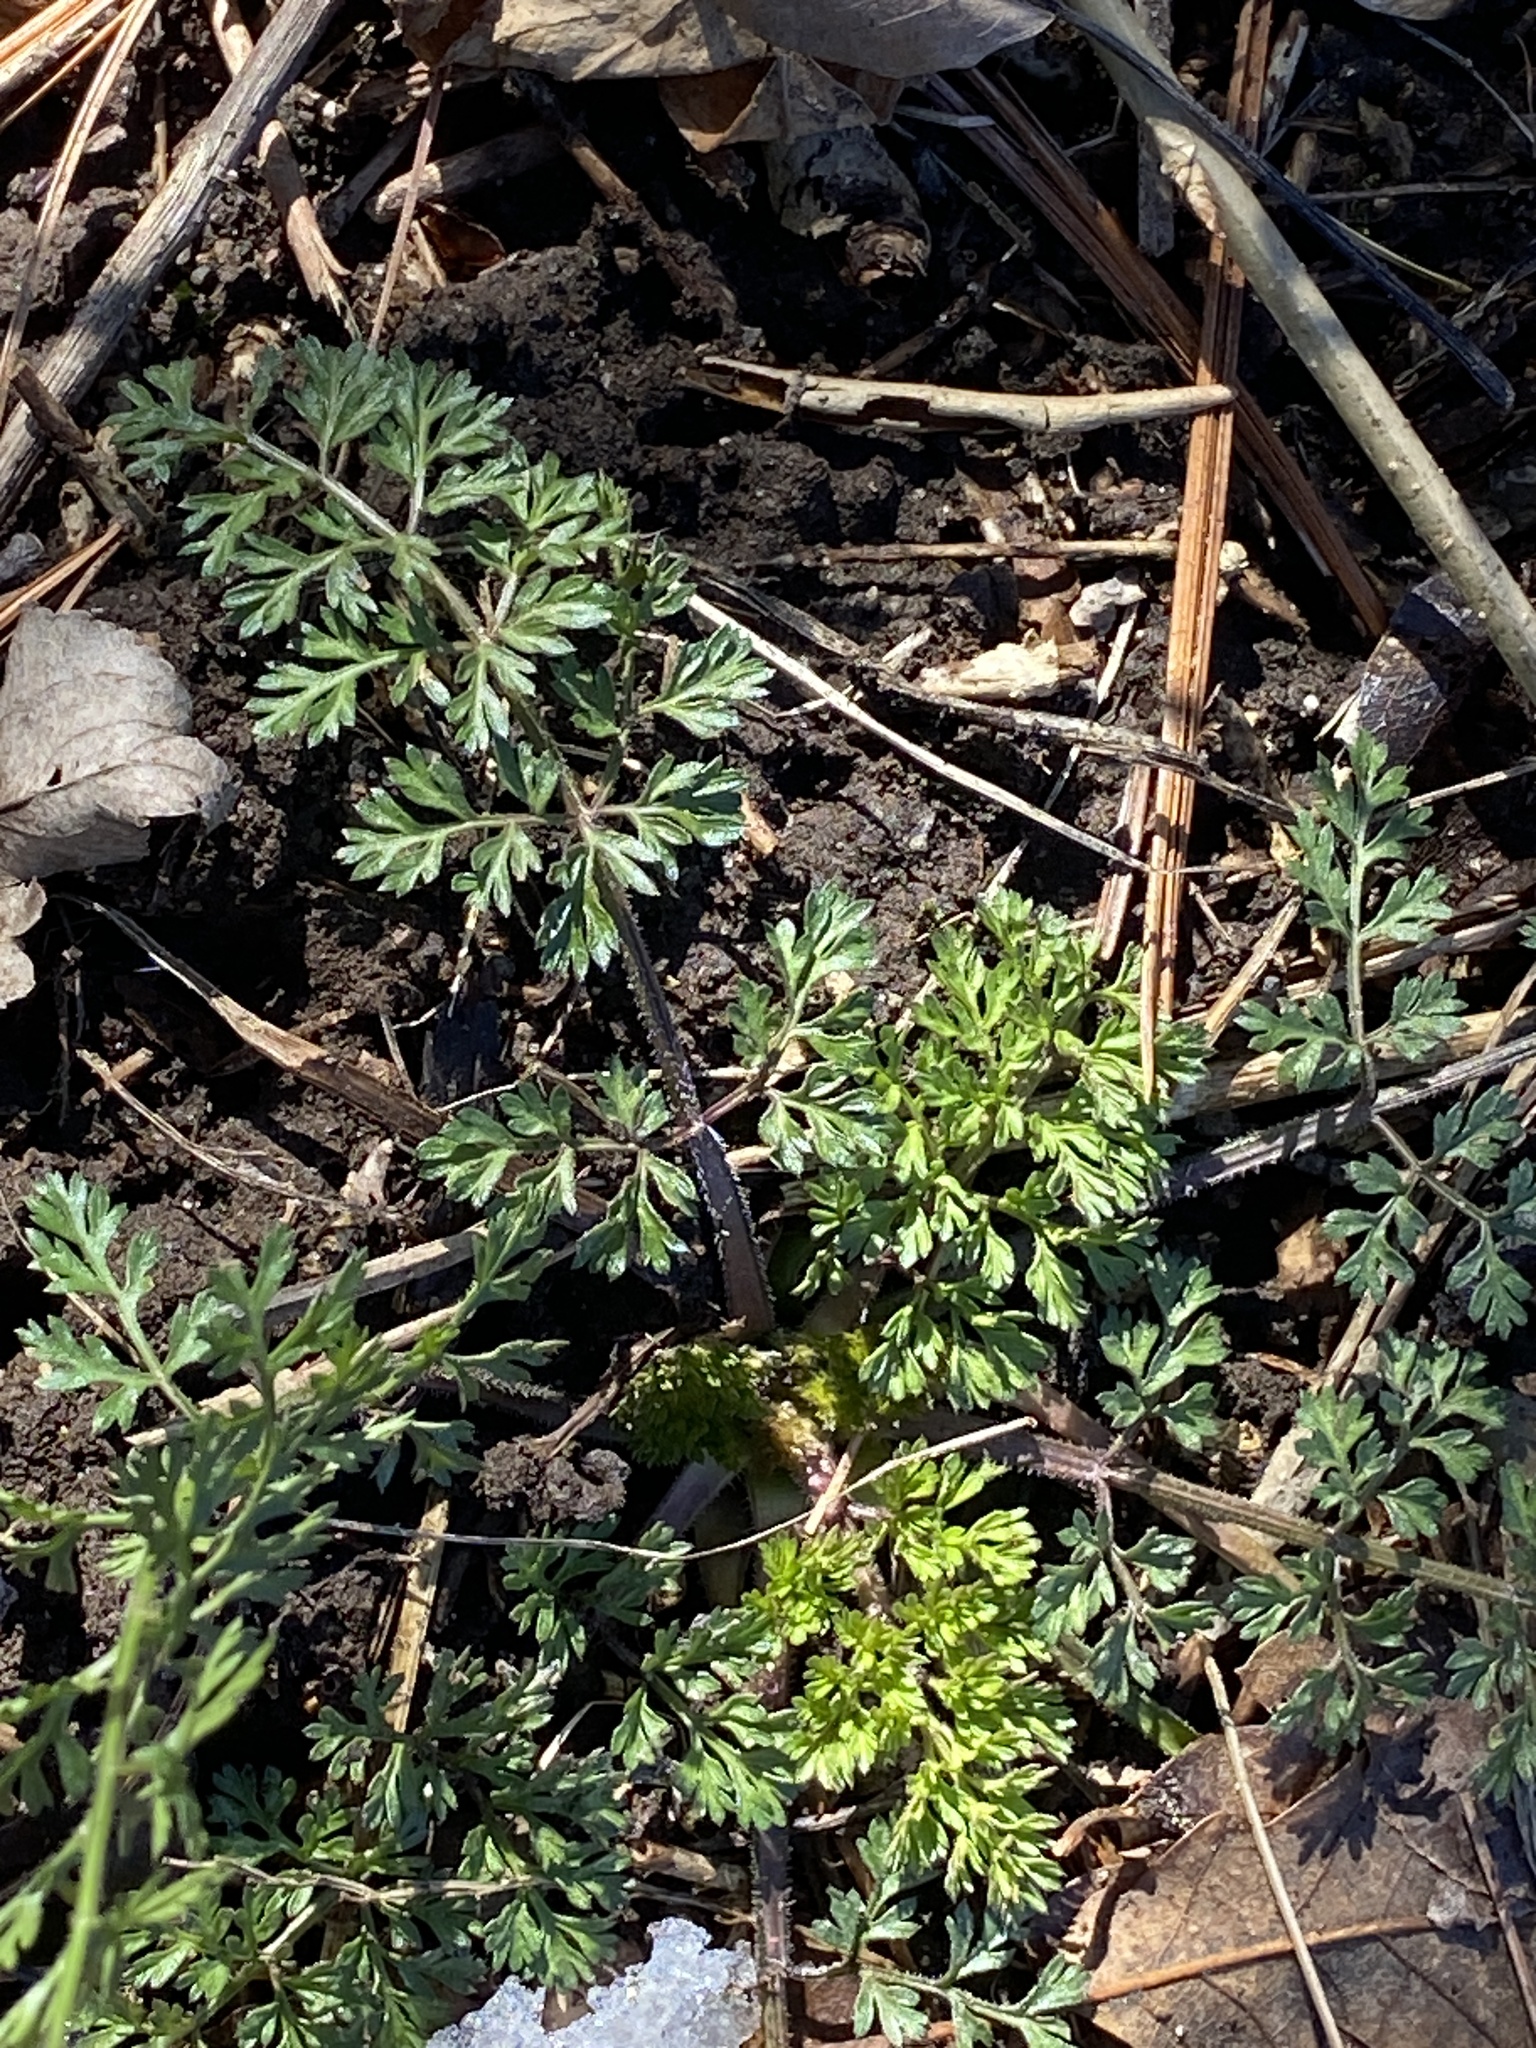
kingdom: Plantae
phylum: Tracheophyta
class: Magnoliopsida
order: Apiales
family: Apiaceae
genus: Daucus
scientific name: Daucus carota
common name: Wild carrot
